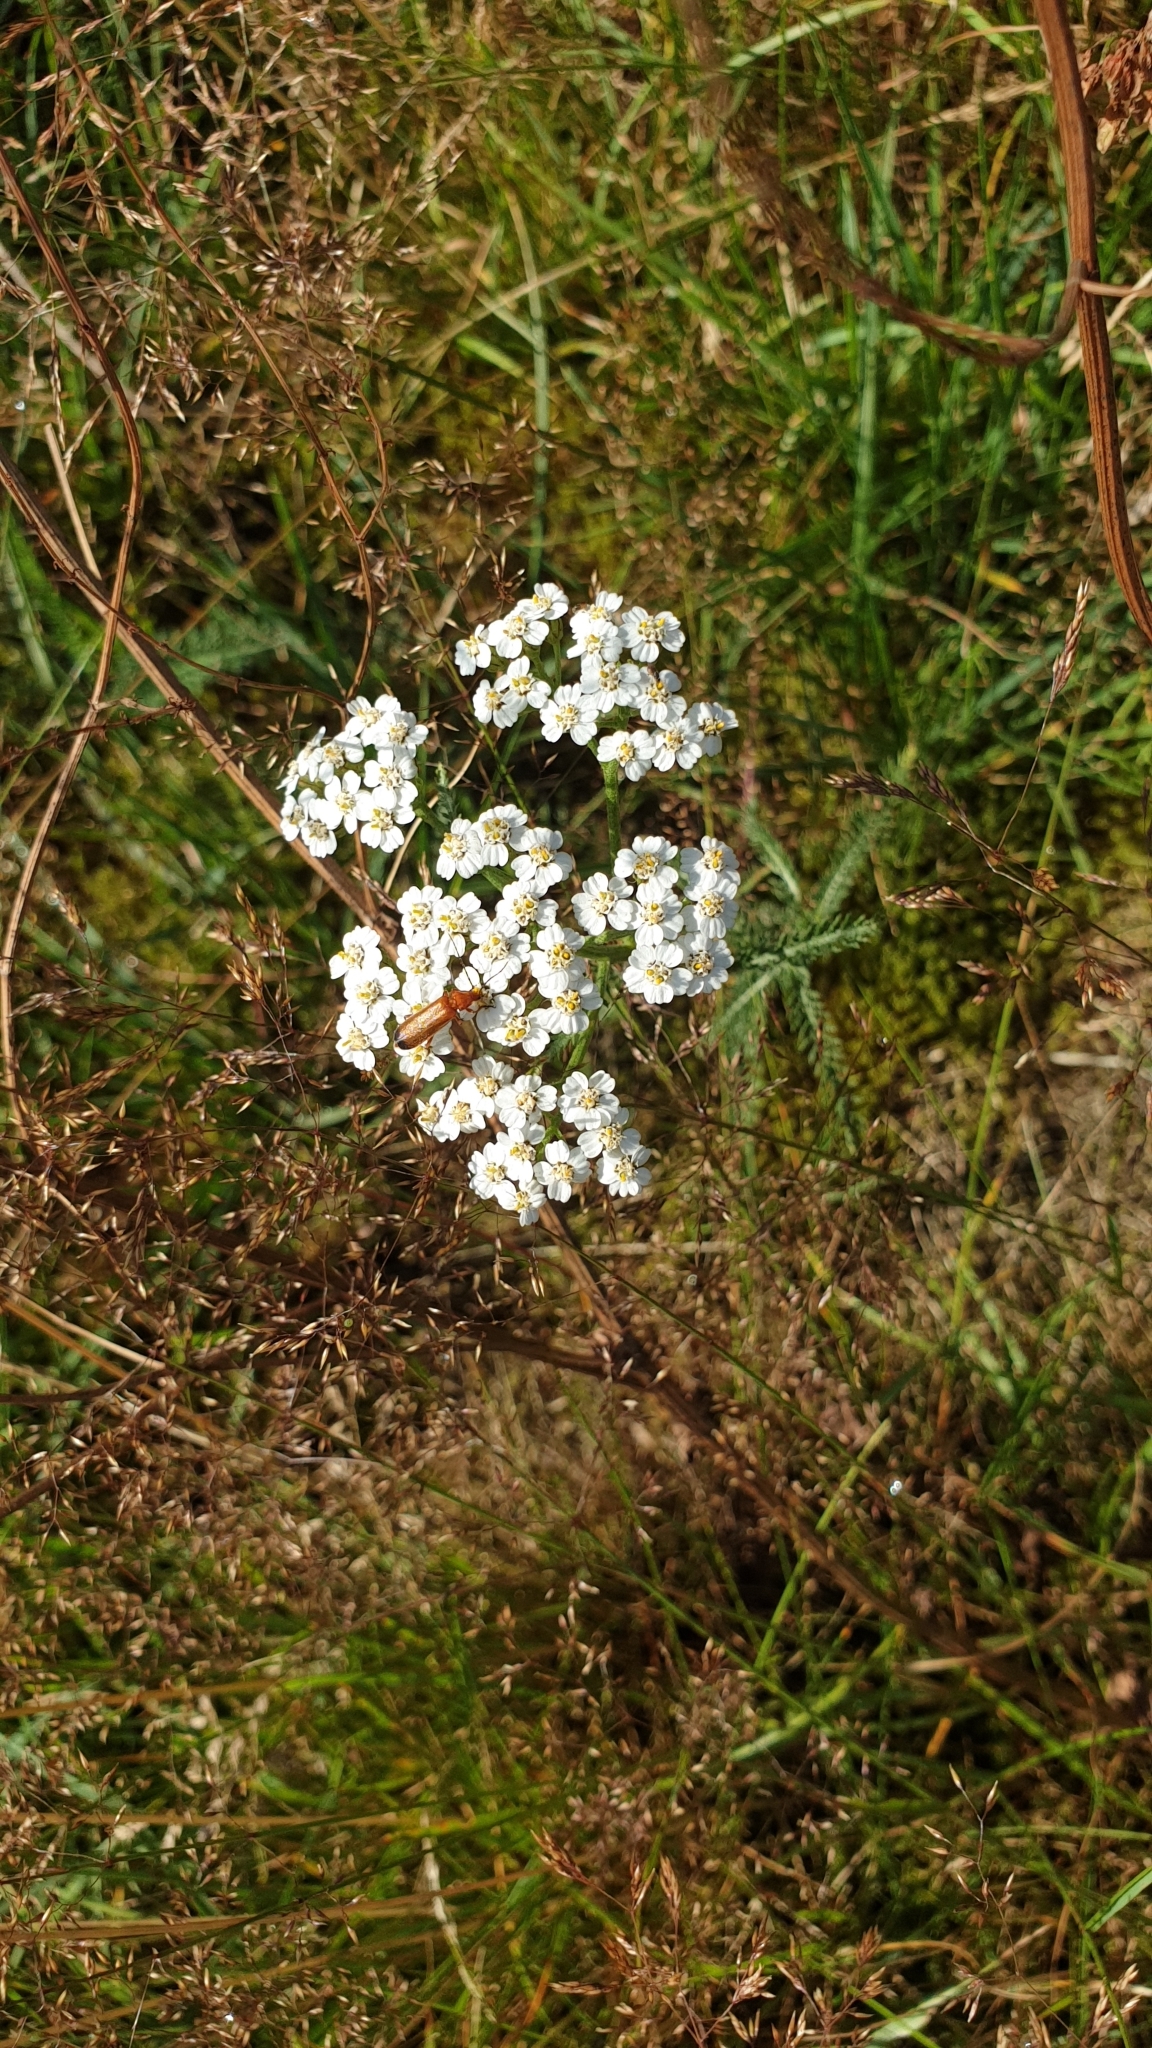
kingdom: Plantae
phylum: Tracheophyta
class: Magnoliopsida
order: Asterales
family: Asteraceae
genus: Achillea
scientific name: Achillea millefolium
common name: Yarrow
